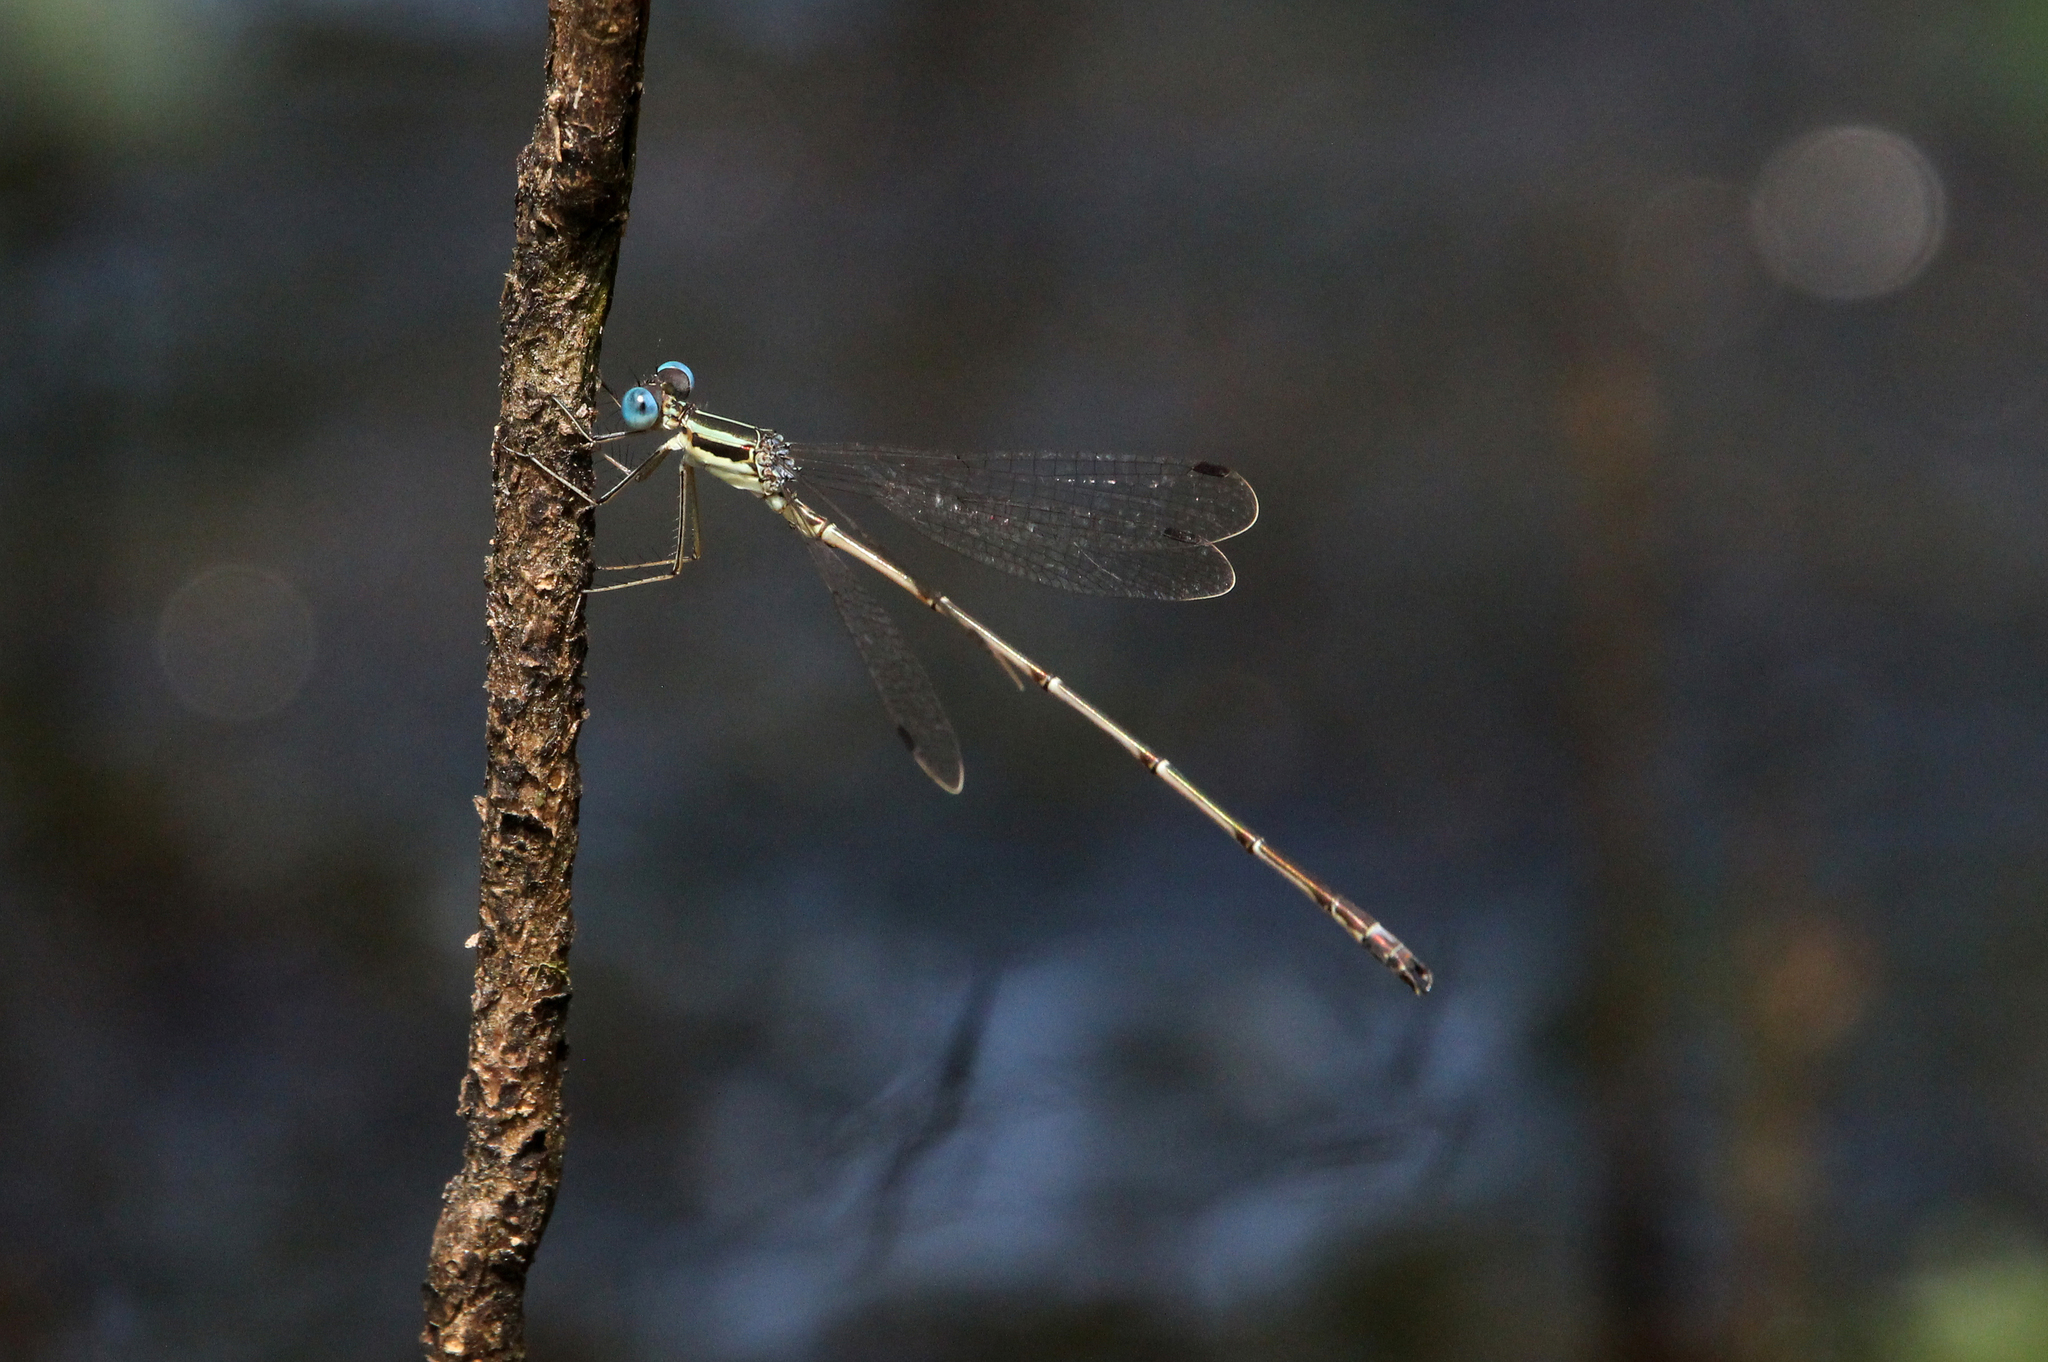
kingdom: Animalia
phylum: Arthropoda
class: Insecta
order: Odonata
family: Lestidae
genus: Lestes
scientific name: Lestes rectangularis
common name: Slender spreadwing
